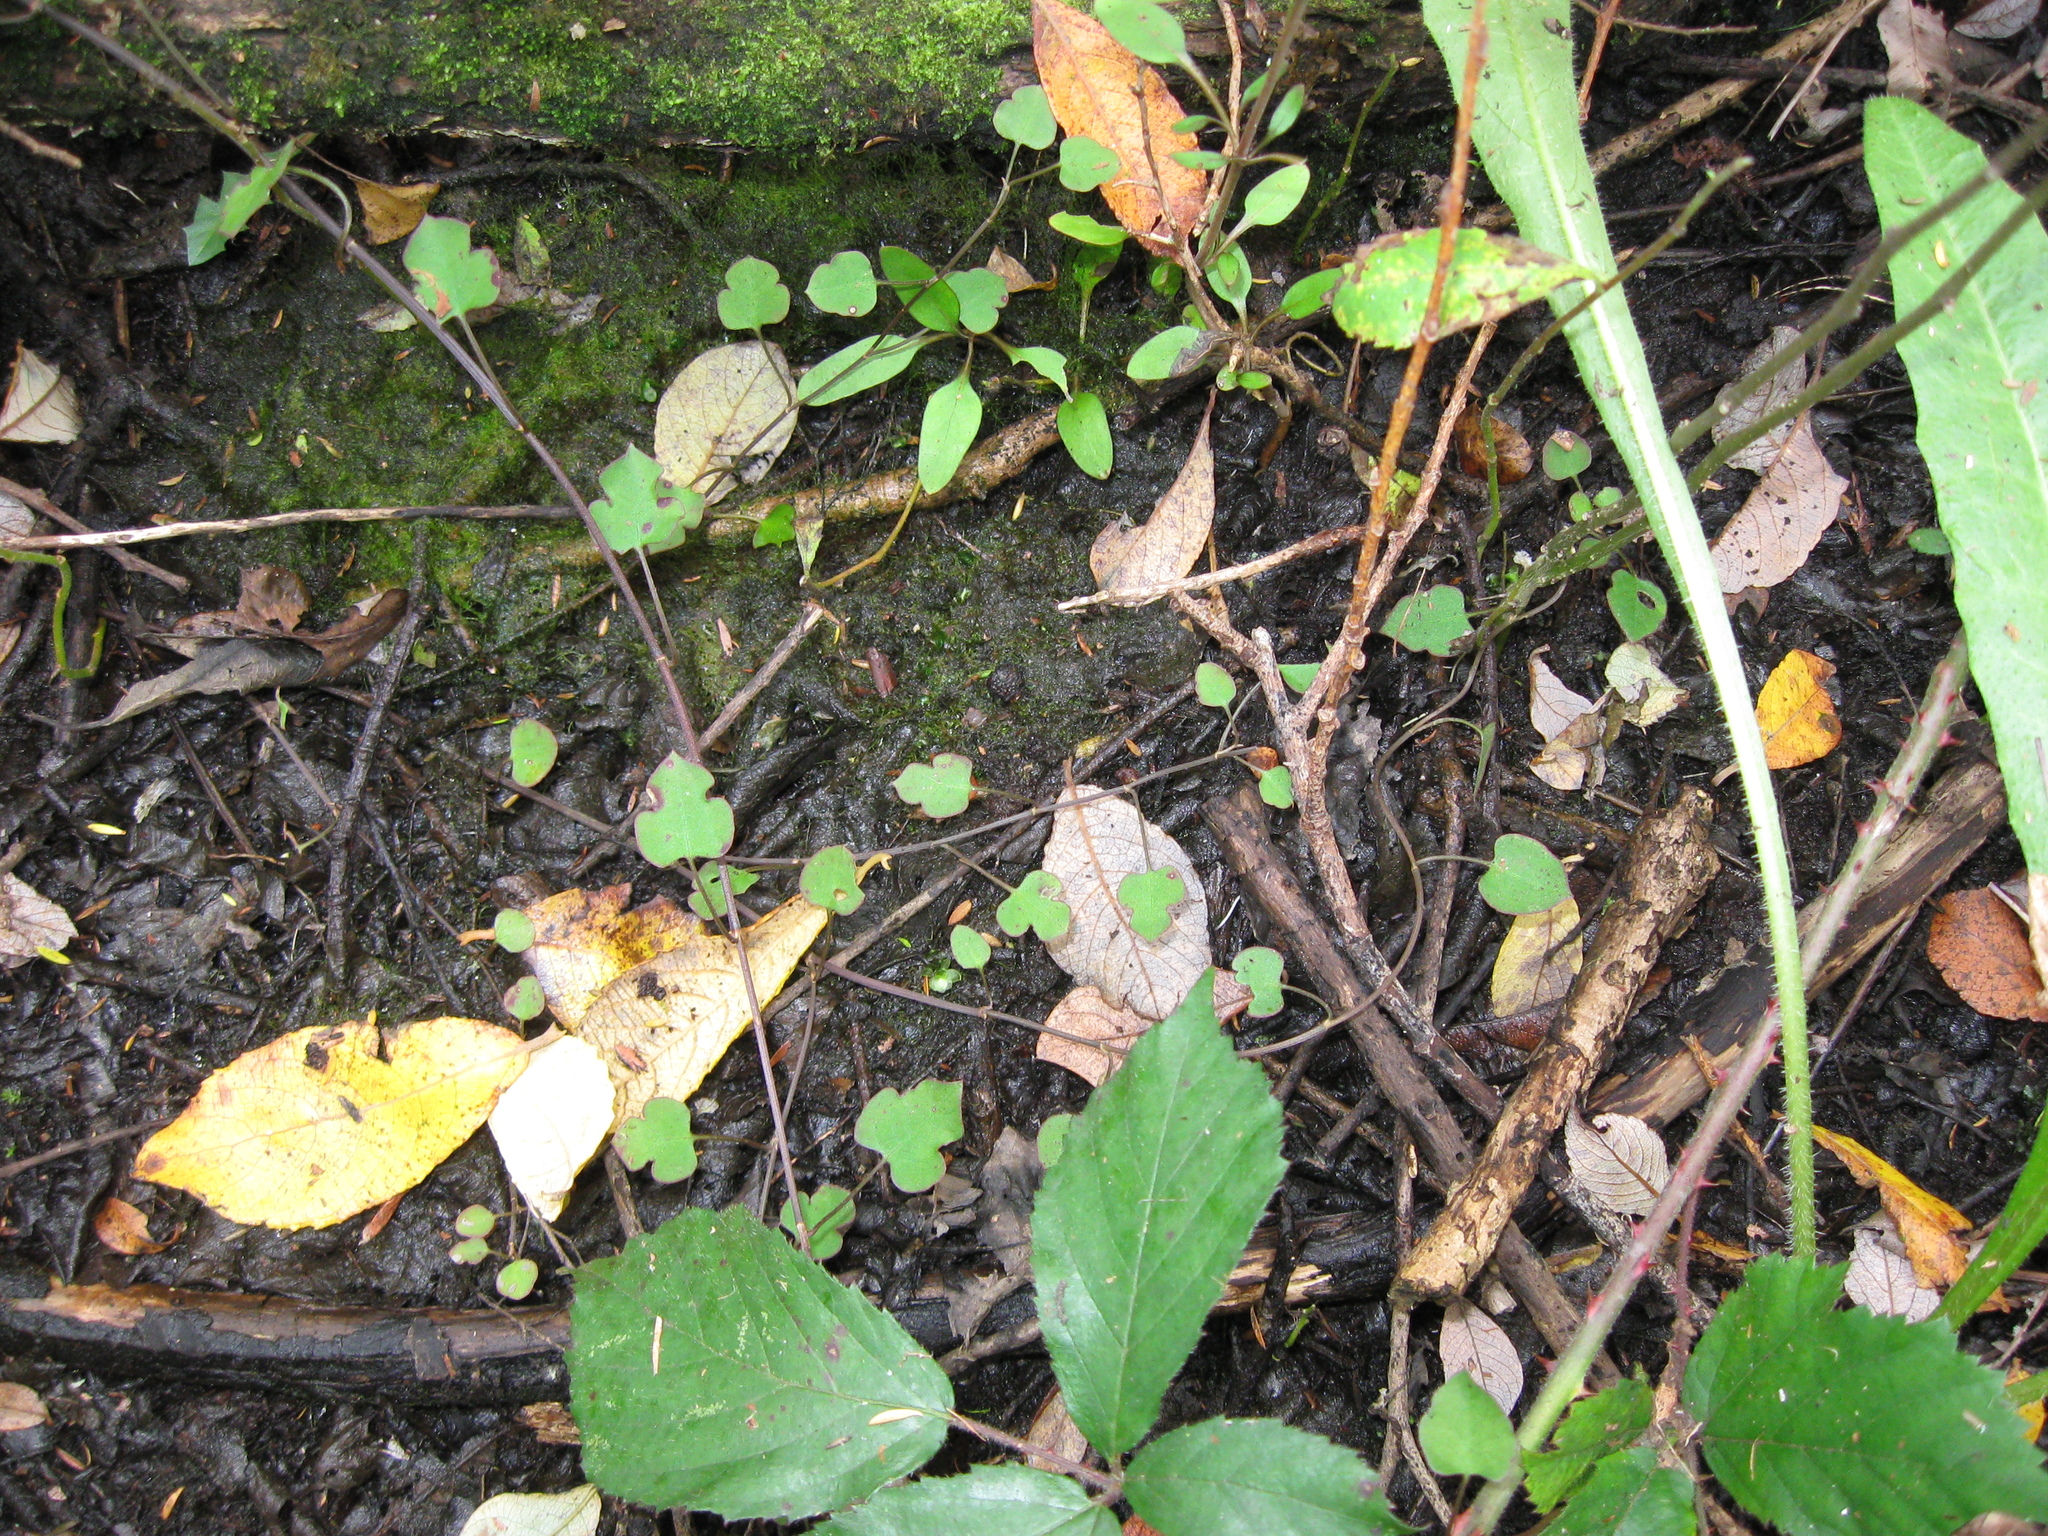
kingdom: Plantae
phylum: Tracheophyta
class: Magnoliopsida
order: Caryophyllales
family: Polygonaceae
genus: Muehlenbeckia
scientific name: Muehlenbeckia australis
